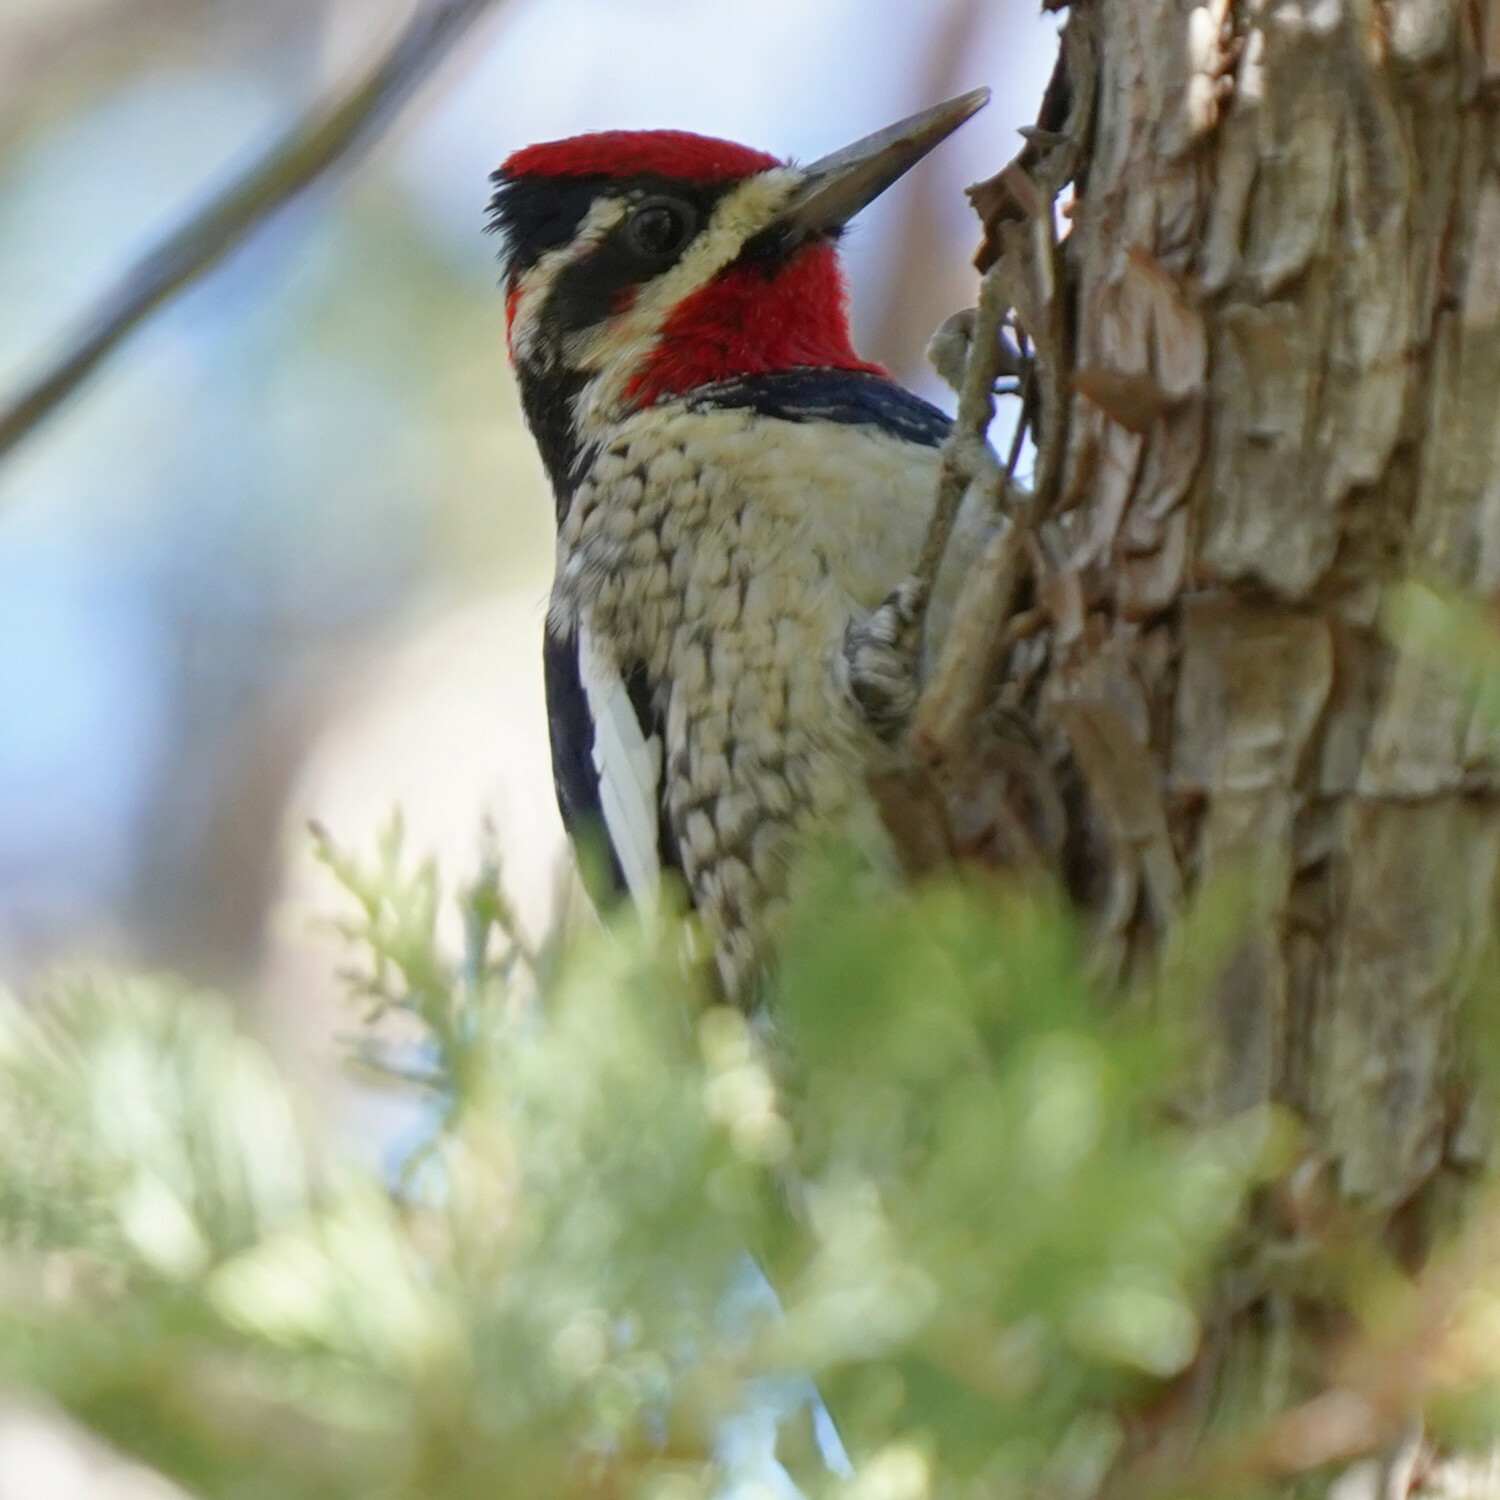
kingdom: Animalia
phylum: Chordata
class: Aves
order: Piciformes
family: Picidae
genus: Sphyrapicus
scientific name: Sphyrapicus nuchalis
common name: Red-naped sapsucker
